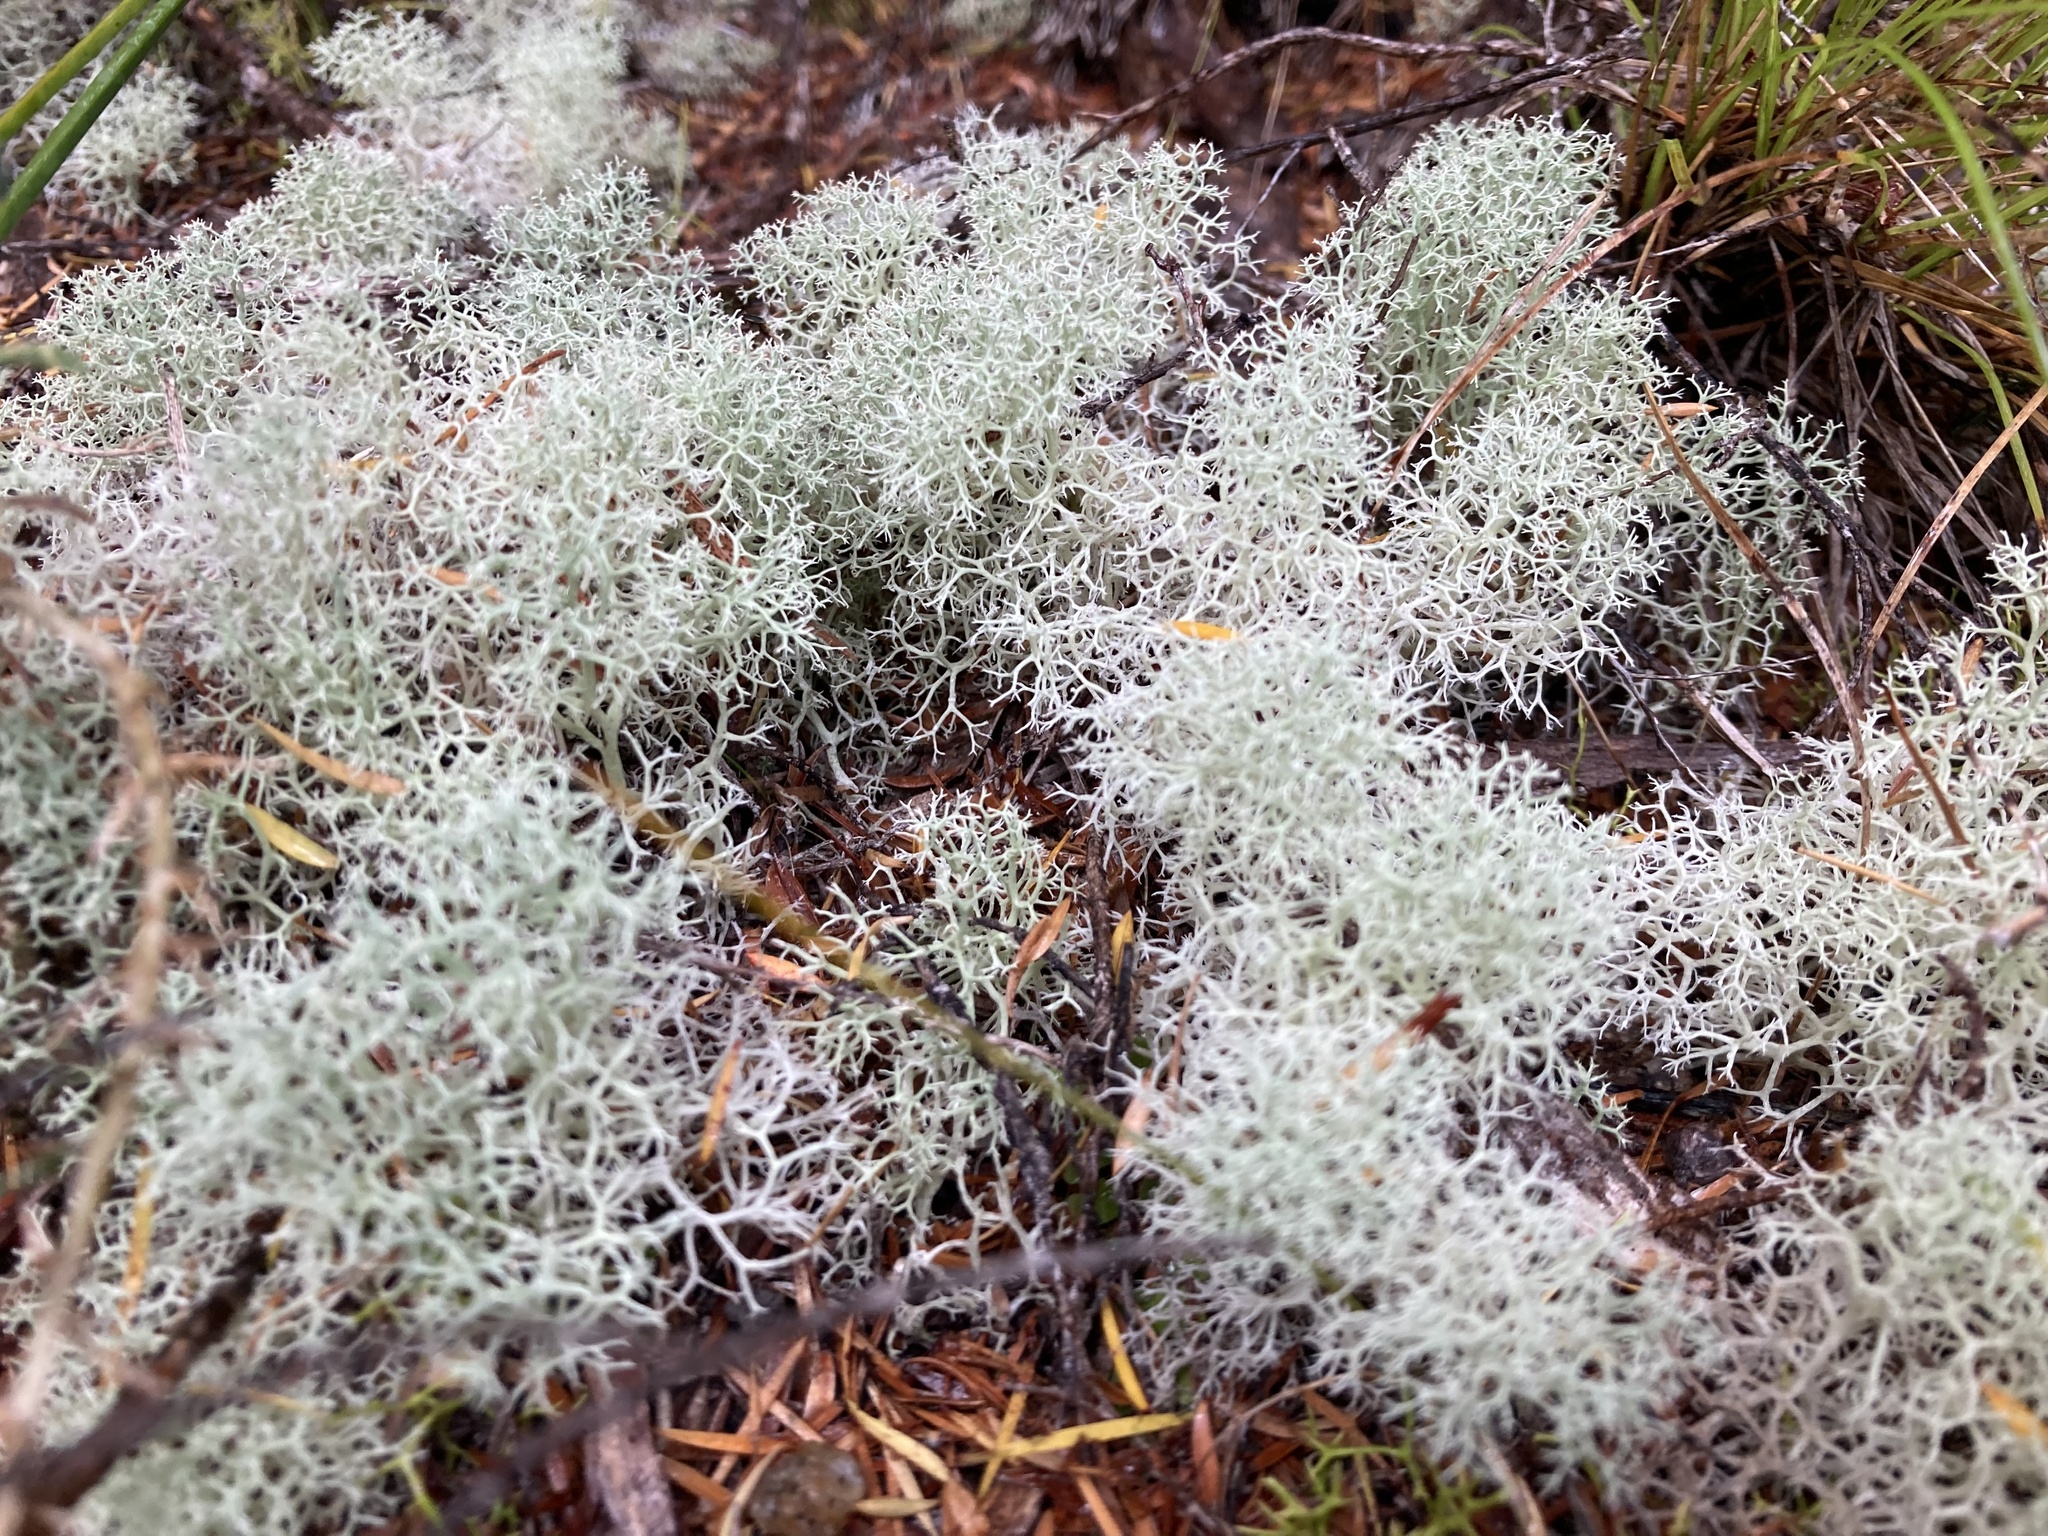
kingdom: Fungi
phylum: Ascomycota
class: Lecanoromycetes
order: Lecanorales
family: Cladoniaceae
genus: Cladonia
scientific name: Cladonia confusa
